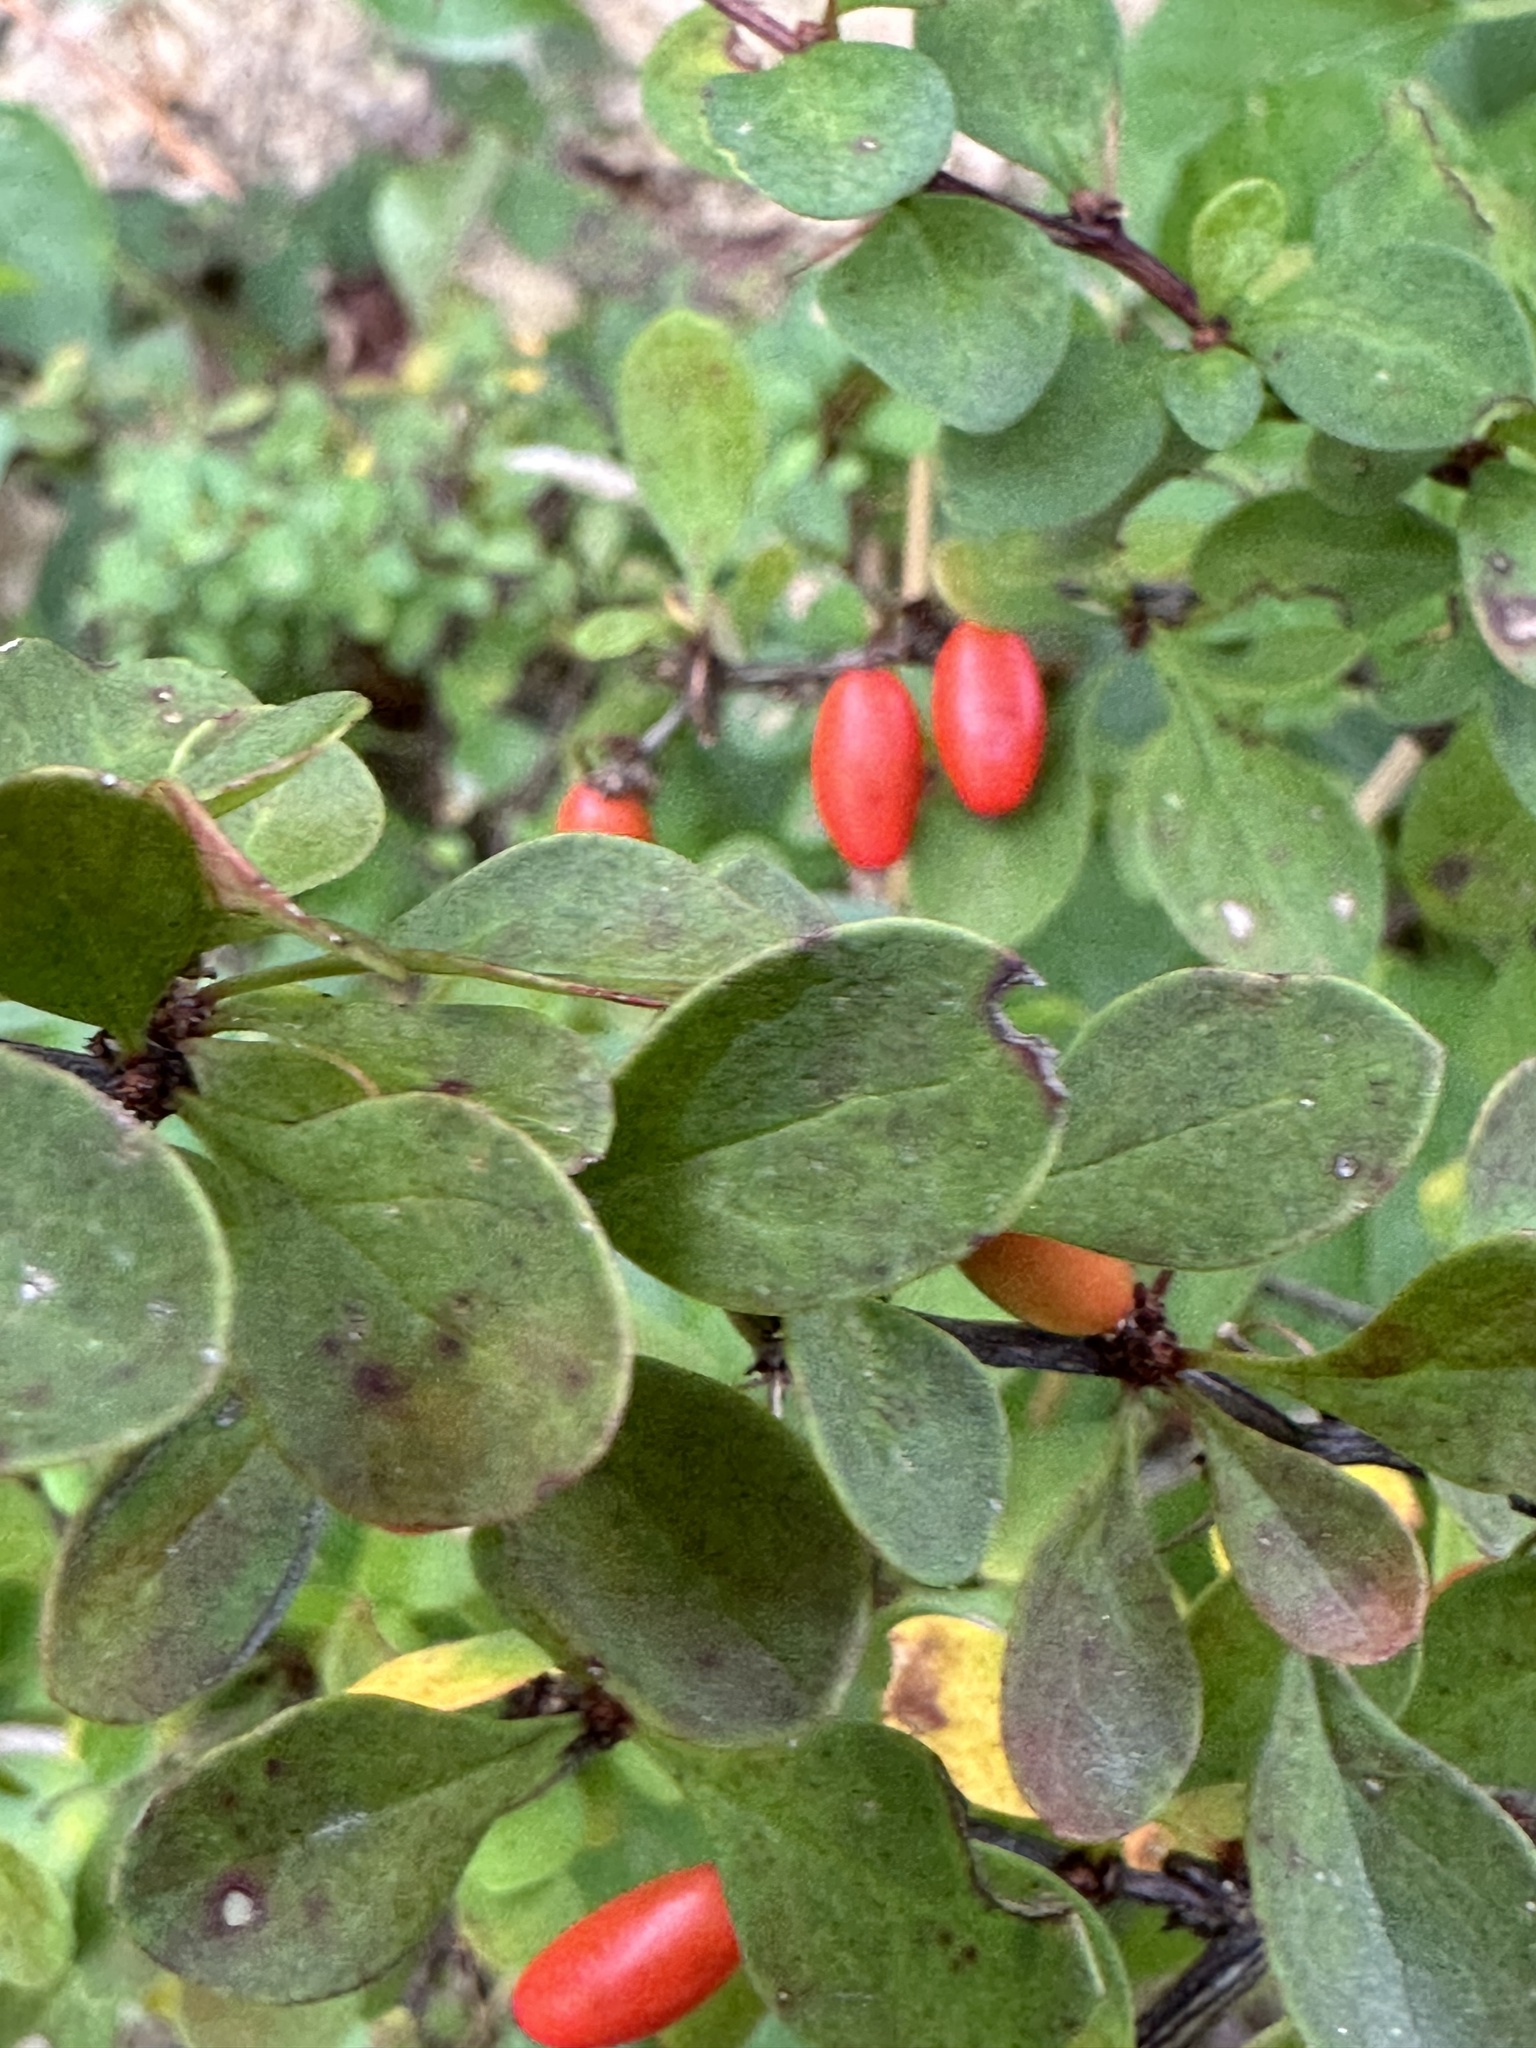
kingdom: Plantae
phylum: Tracheophyta
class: Magnoliopsida
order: Ranunculales
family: Berberidaceae
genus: Berberis
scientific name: Berberis thunbergii
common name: Japanese barberry
